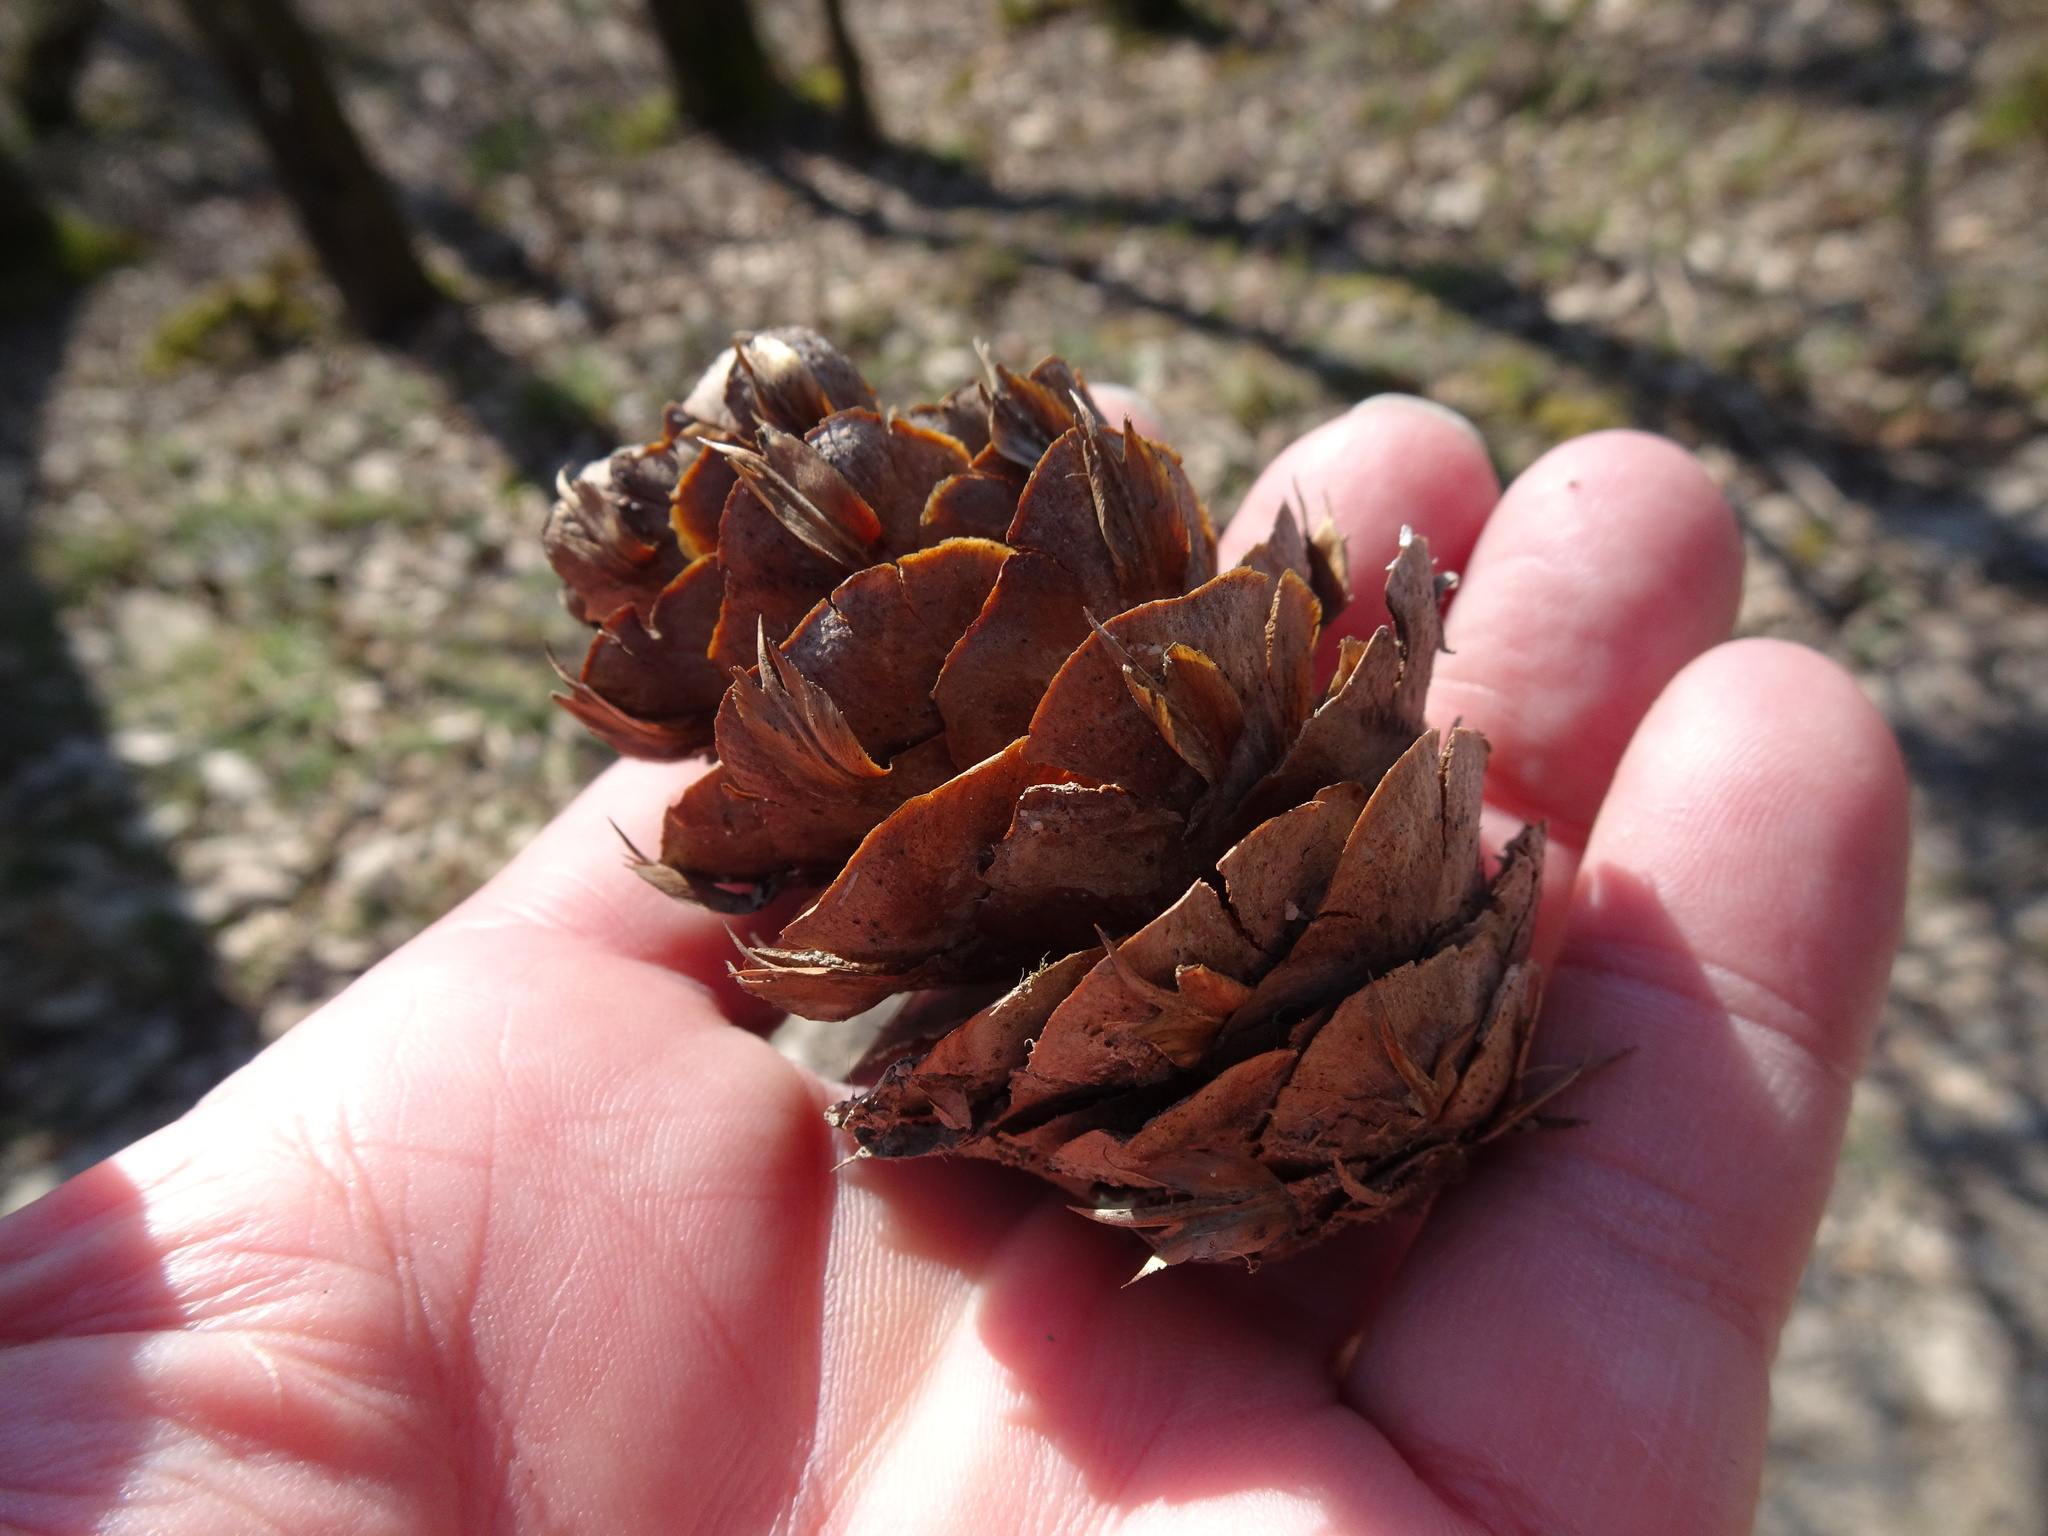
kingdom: Plantae
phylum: Tracheophyta
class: Pinopsida
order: Pinales
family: Pinaceae
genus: Pseudotsuga
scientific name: Pseudotsuga menziesii
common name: Douglas fir
